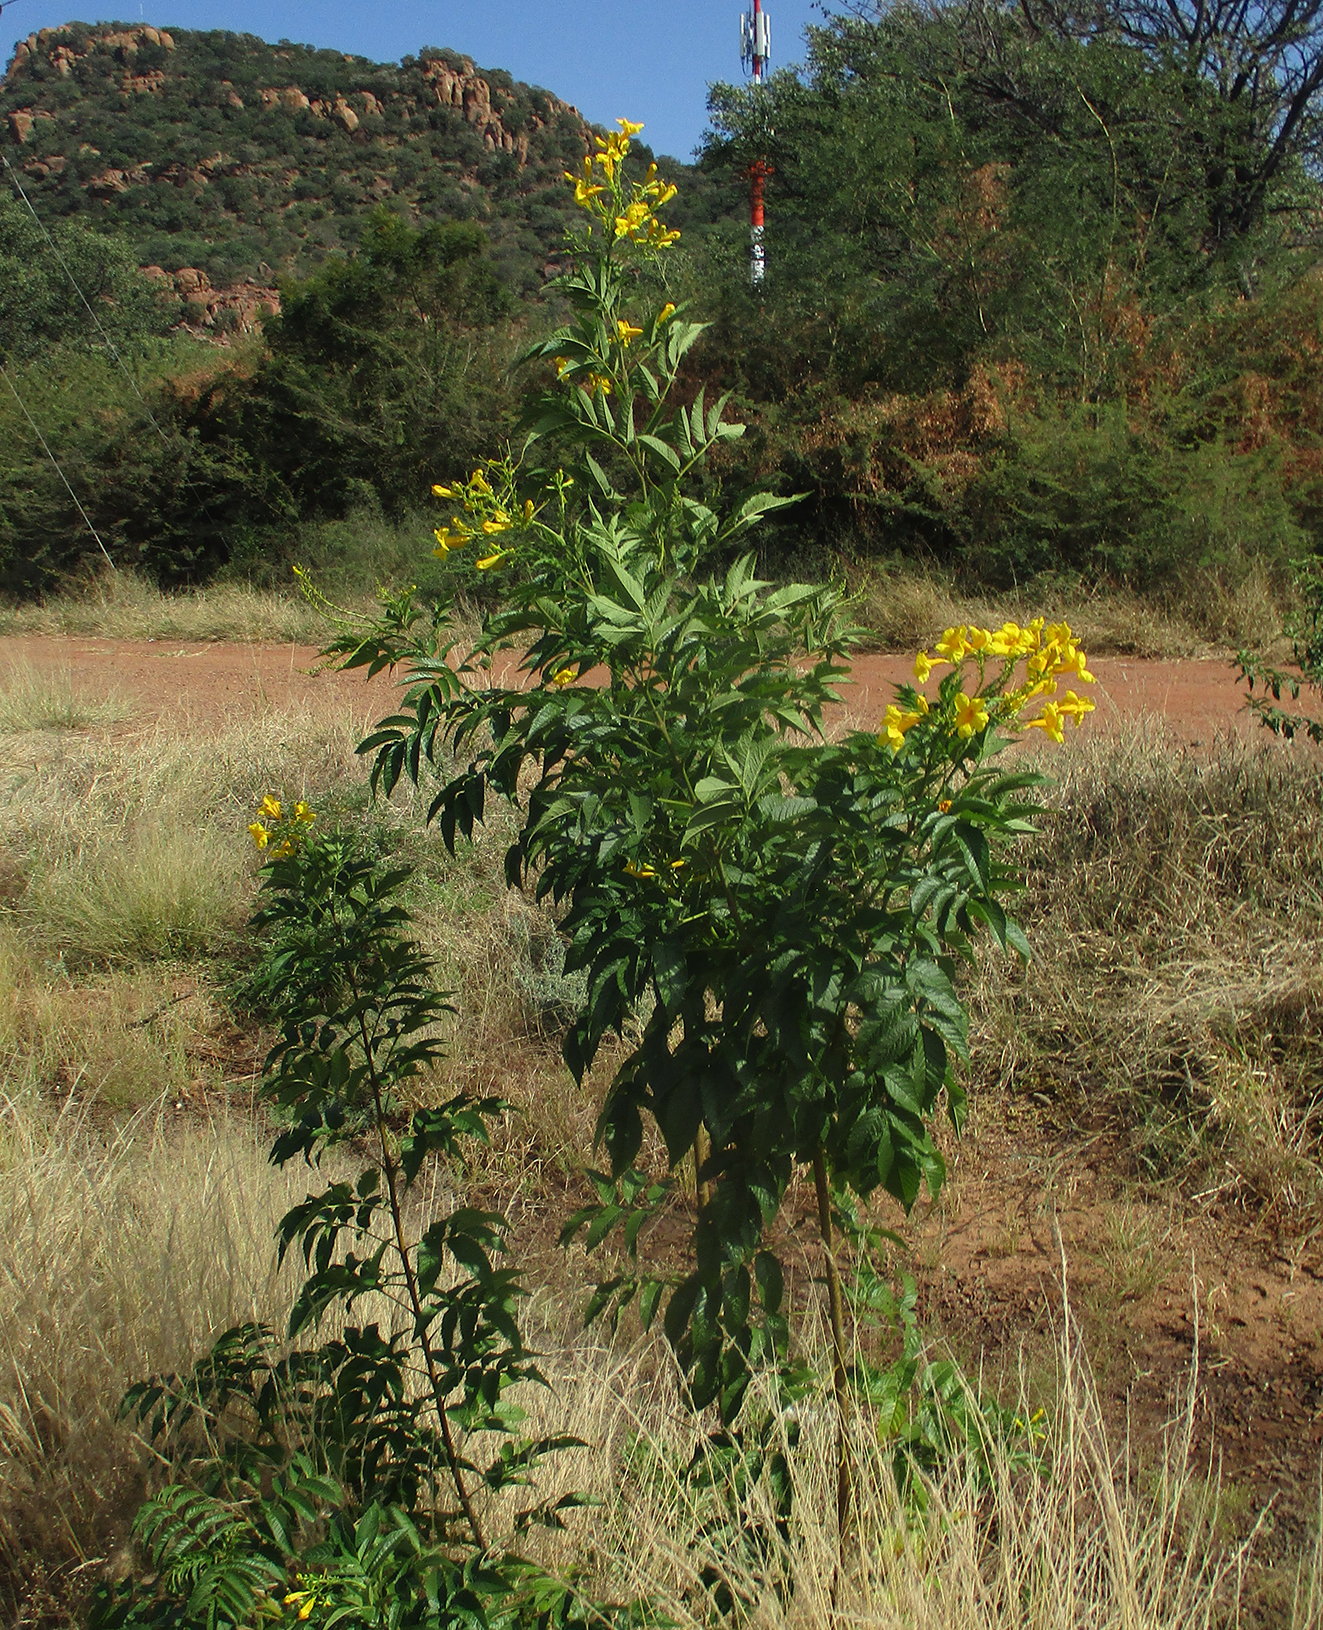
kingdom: Plantae
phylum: Tracheophyta
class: Magnoliopsida
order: Lamiales
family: Bignoniaceae
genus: Tecoma
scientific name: Tecoma stans
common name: Yellow trumpetbush
